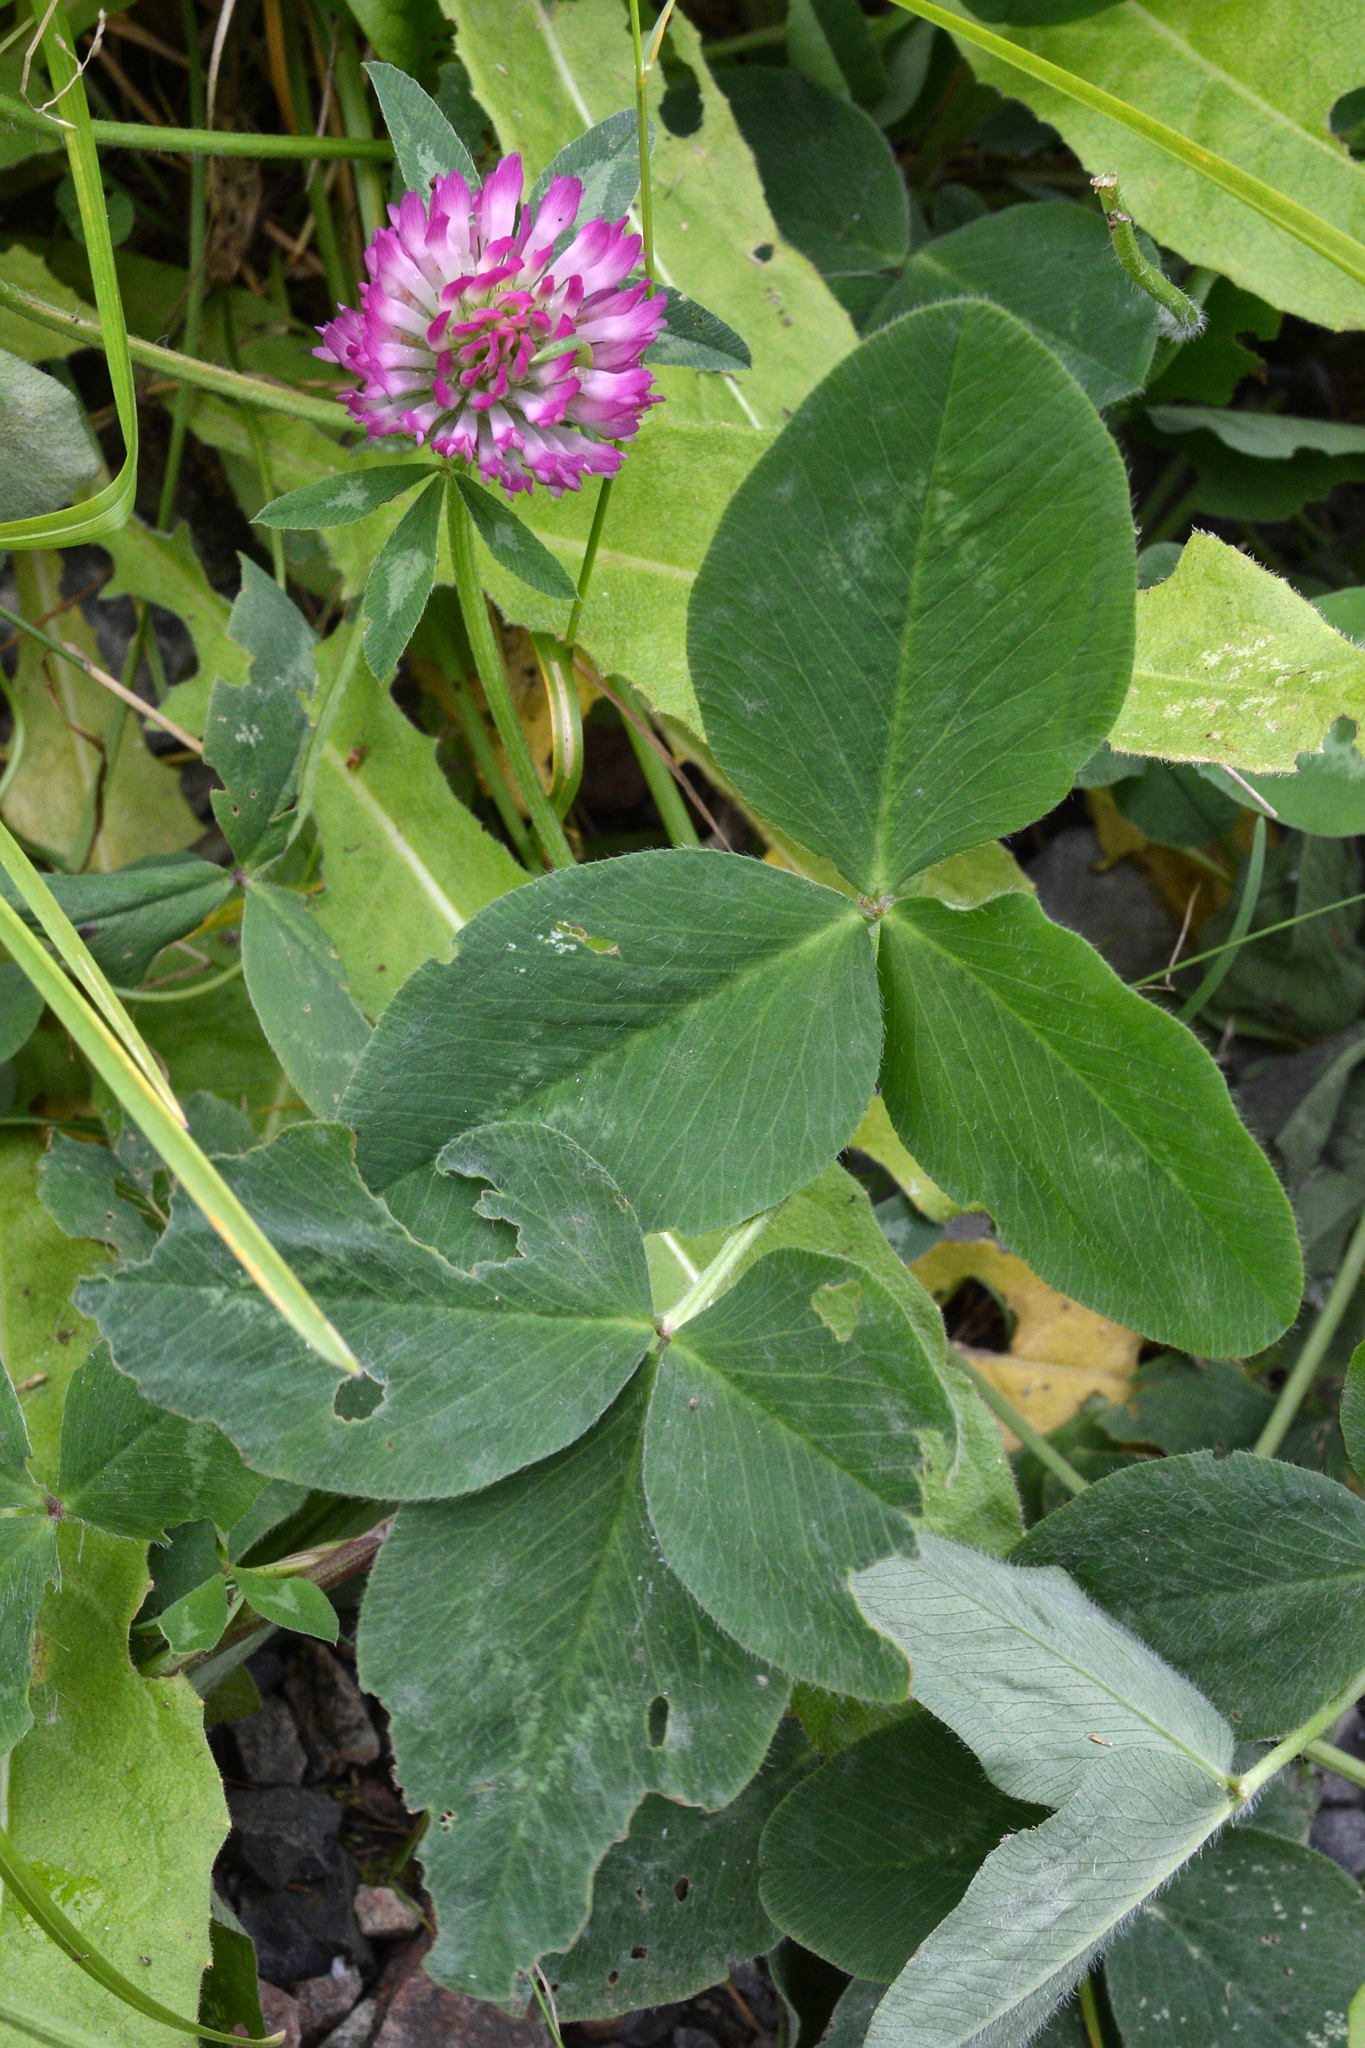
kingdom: Plantae
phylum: Tracheophyta
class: Magnoliopsida
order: Fabales
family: Fabaceae
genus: Trifolium
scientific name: Trifolium pratense
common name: Red clover
